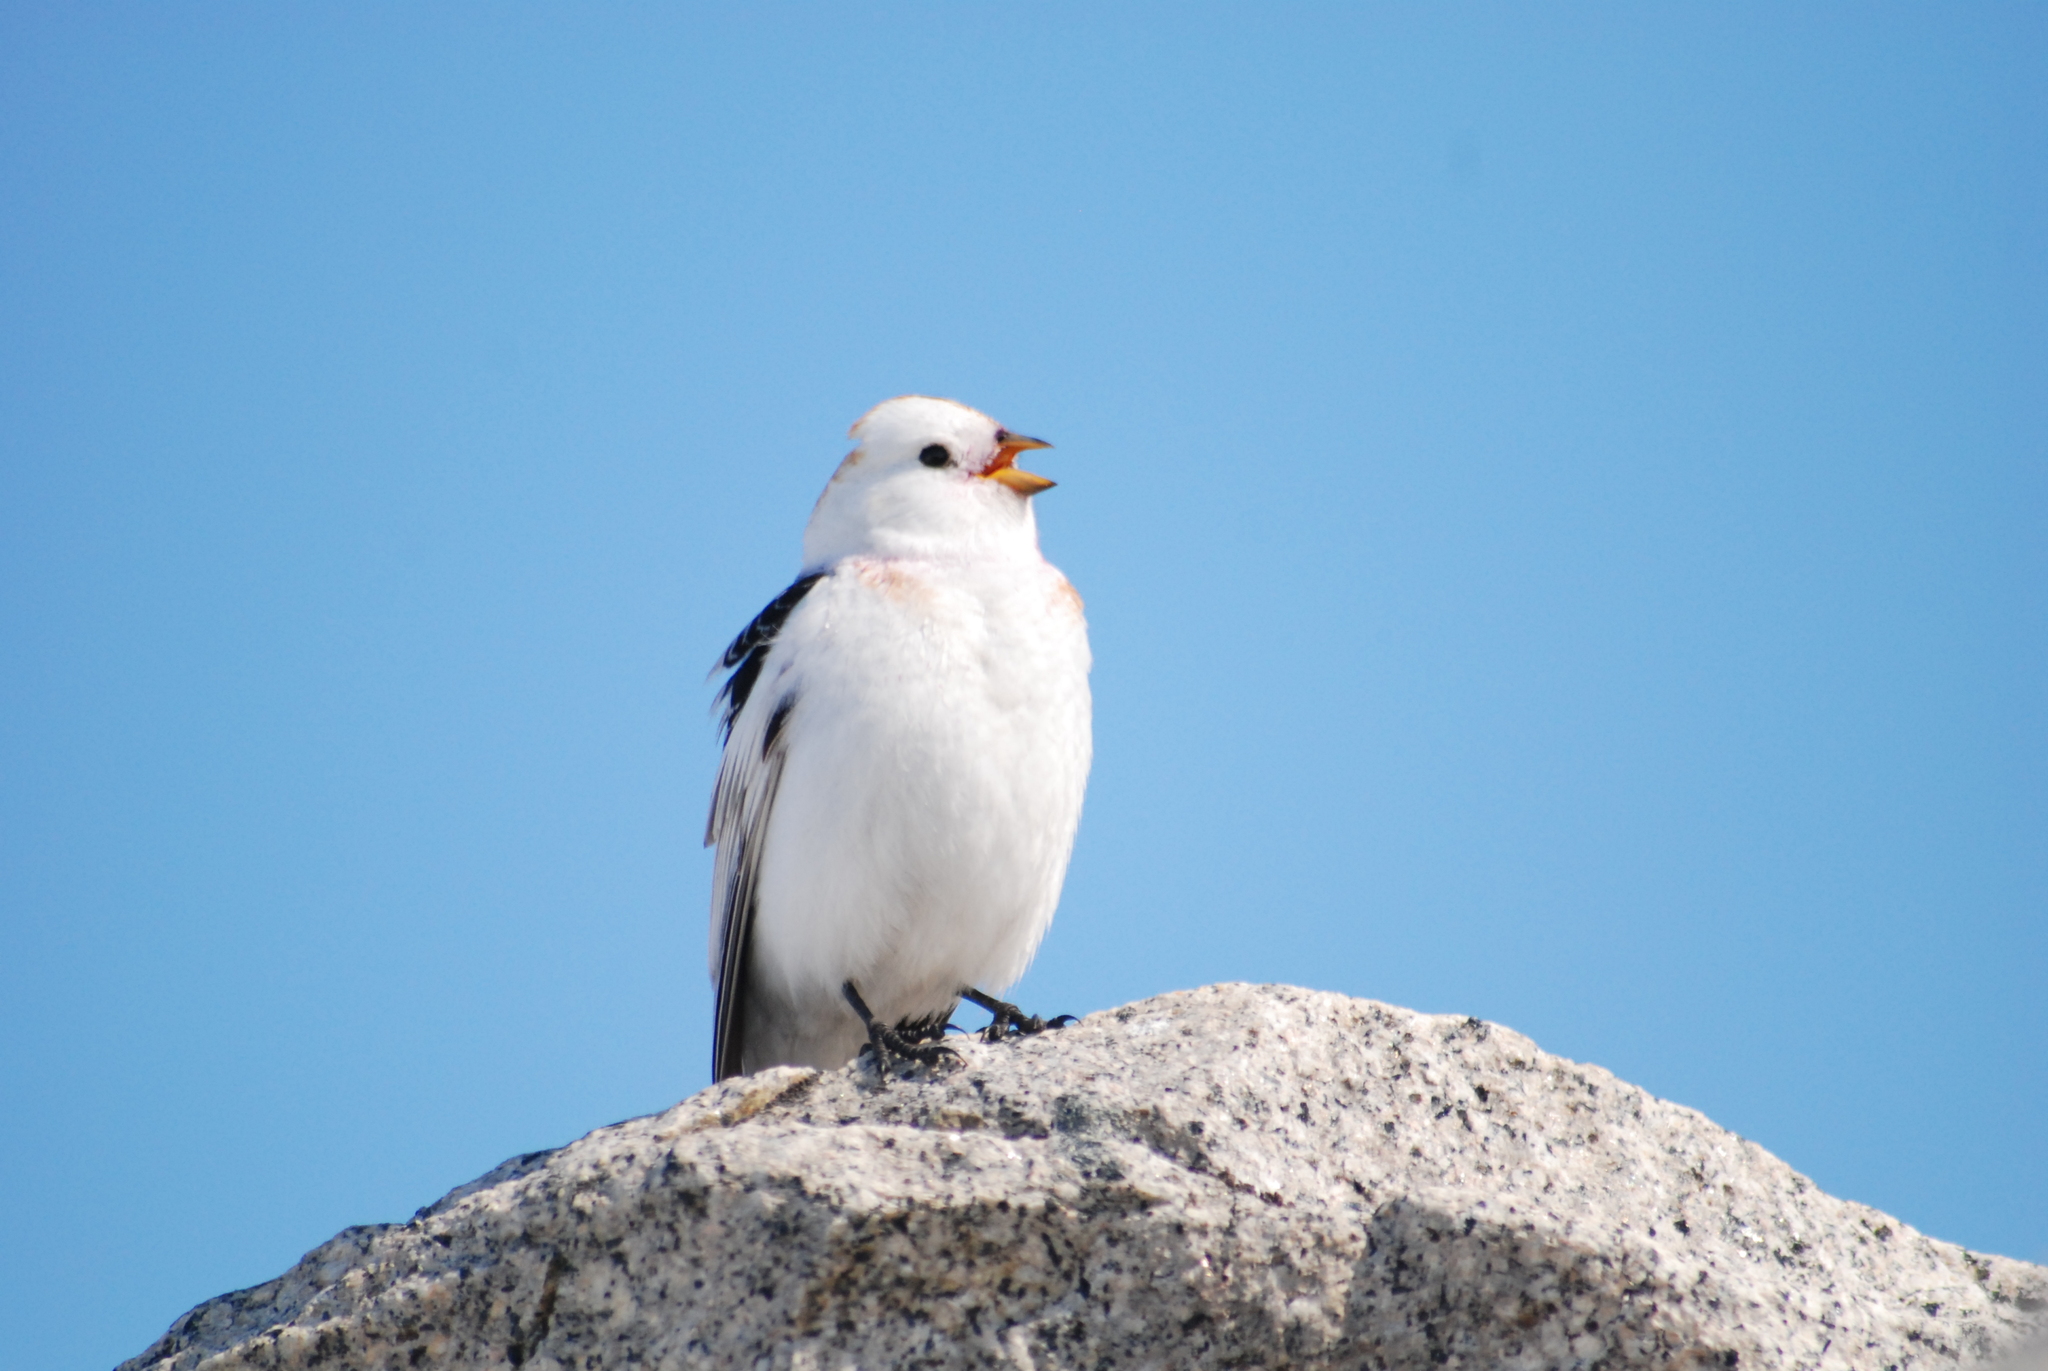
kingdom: Animalia
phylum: Chordata
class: Aves
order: Passeriformes
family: Calcariidae
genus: Plectrophenax
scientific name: Plectrophenax nivalis
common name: Snow bunting
